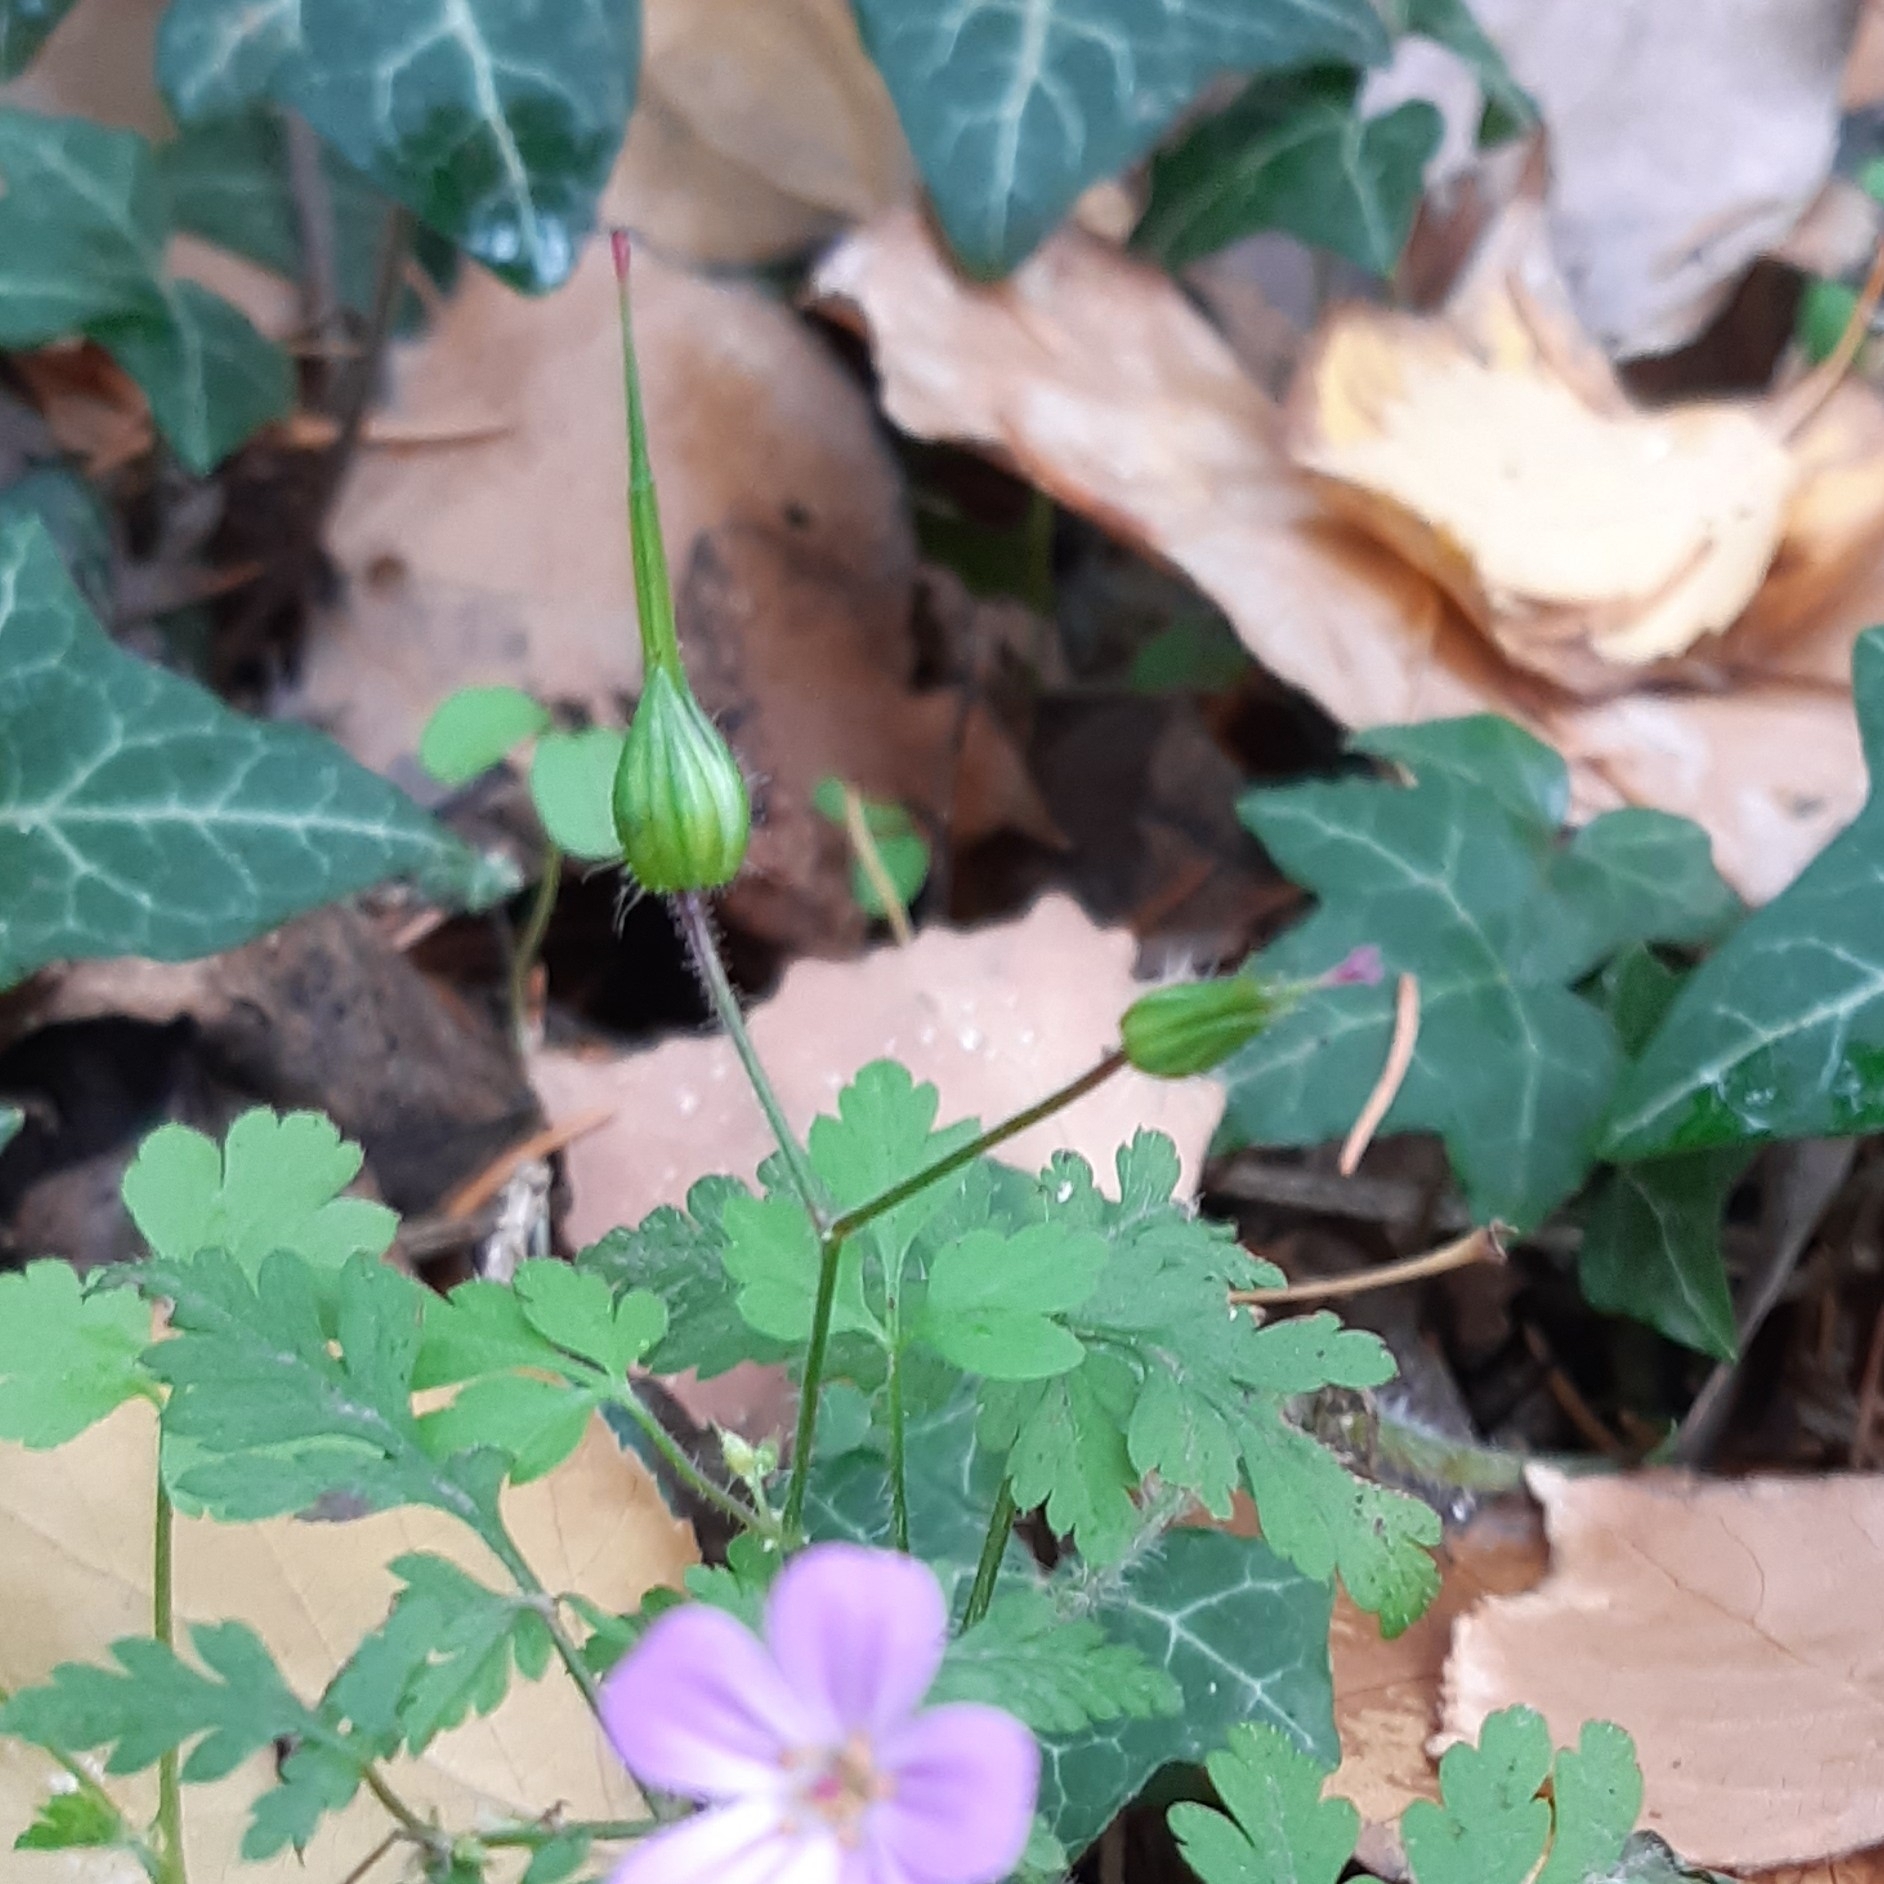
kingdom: Plantae
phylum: Tracheophyta
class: Magnoliopsida
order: Geraniales
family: Geraniaceae
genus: Geranium
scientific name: Geranium purpureum
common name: Little-robin
